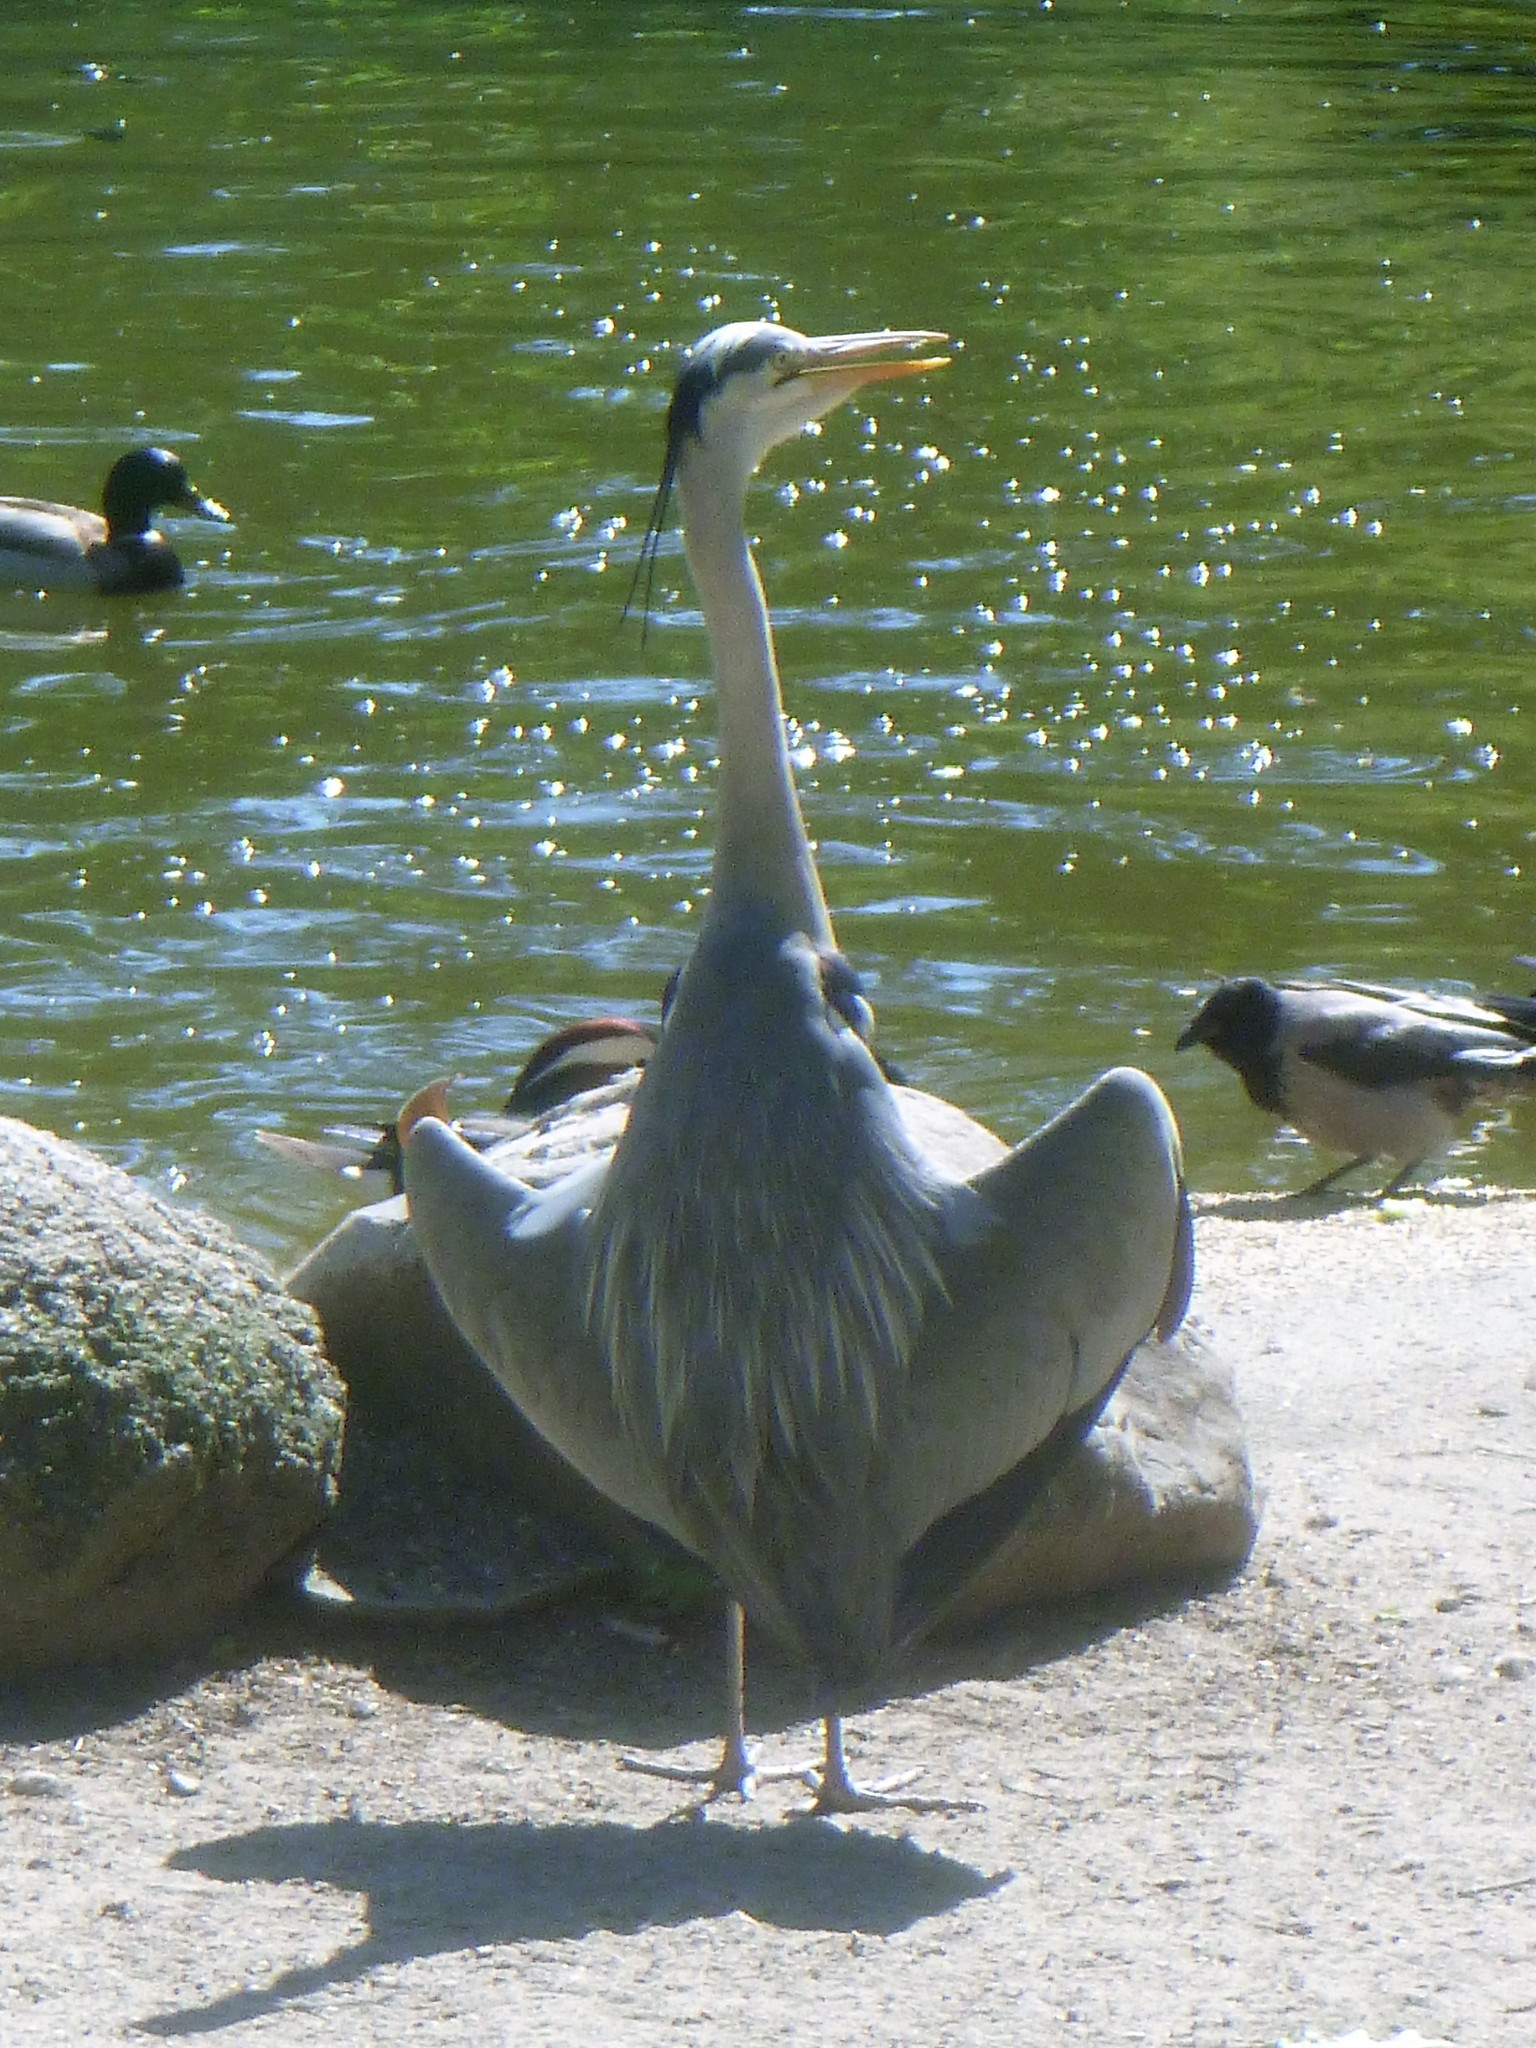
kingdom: Animalia
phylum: Chordata
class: Aves
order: Pelecaniformes
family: Ardeidae
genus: Ardea
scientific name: Ardea cinerea
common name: Grey heron
